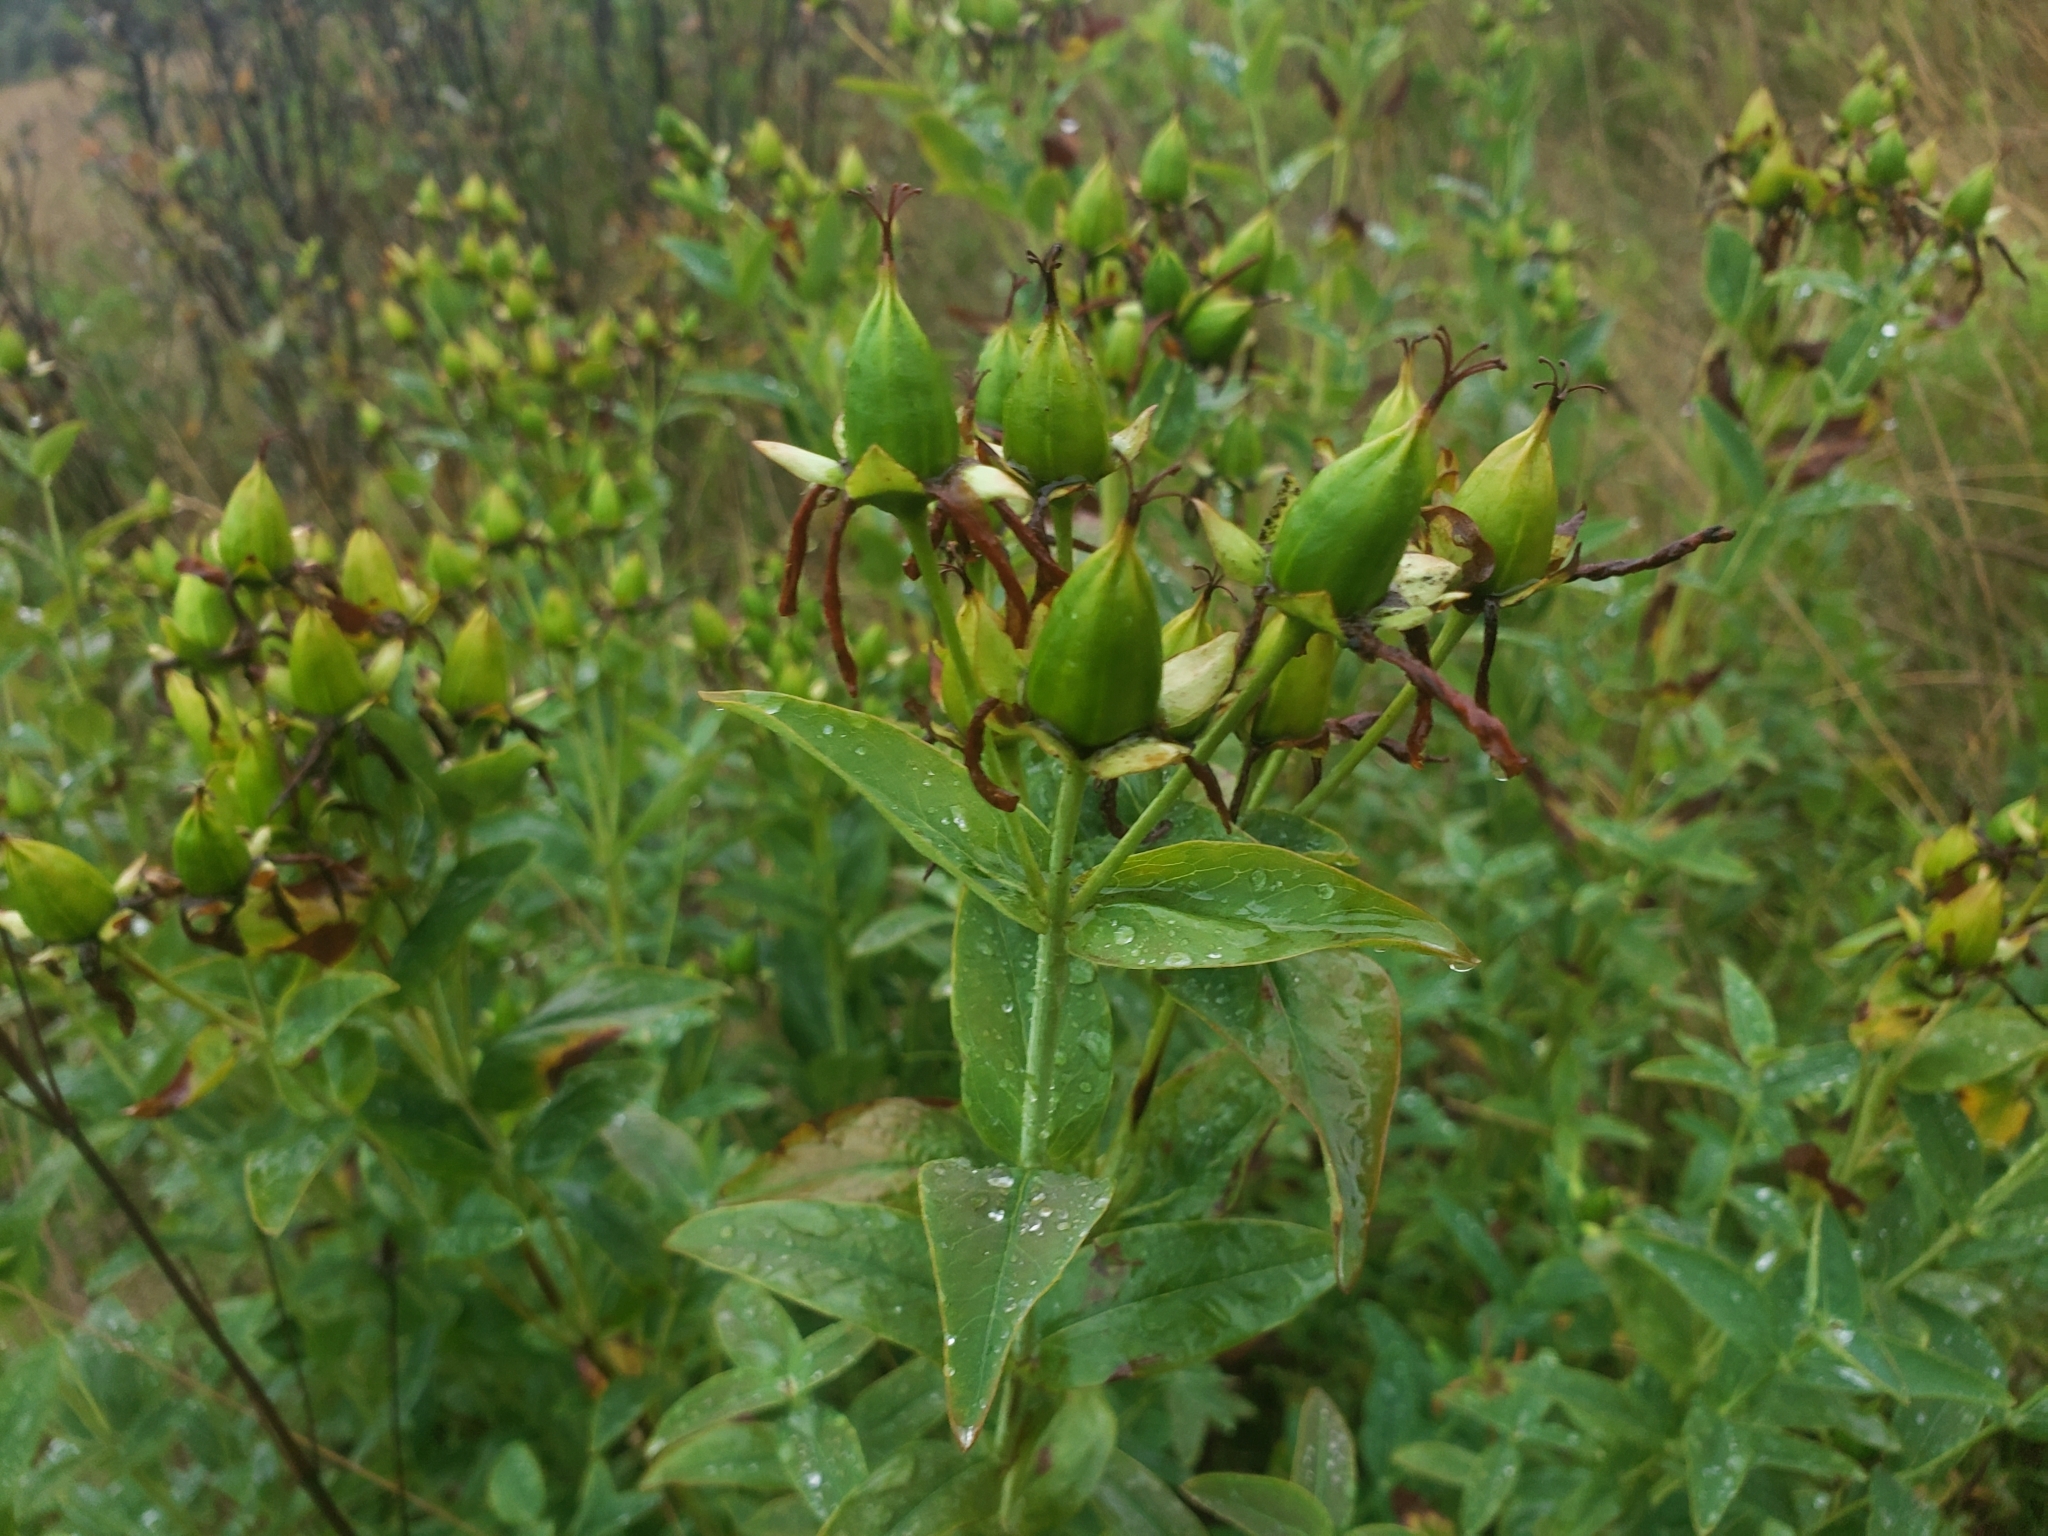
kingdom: Plantae
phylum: Tracheophyta
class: Magnoliopsida
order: Malpighiales
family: Hypericaceae
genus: Hypericum
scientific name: Hypericum ascyron
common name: Giant st. john's-wort
